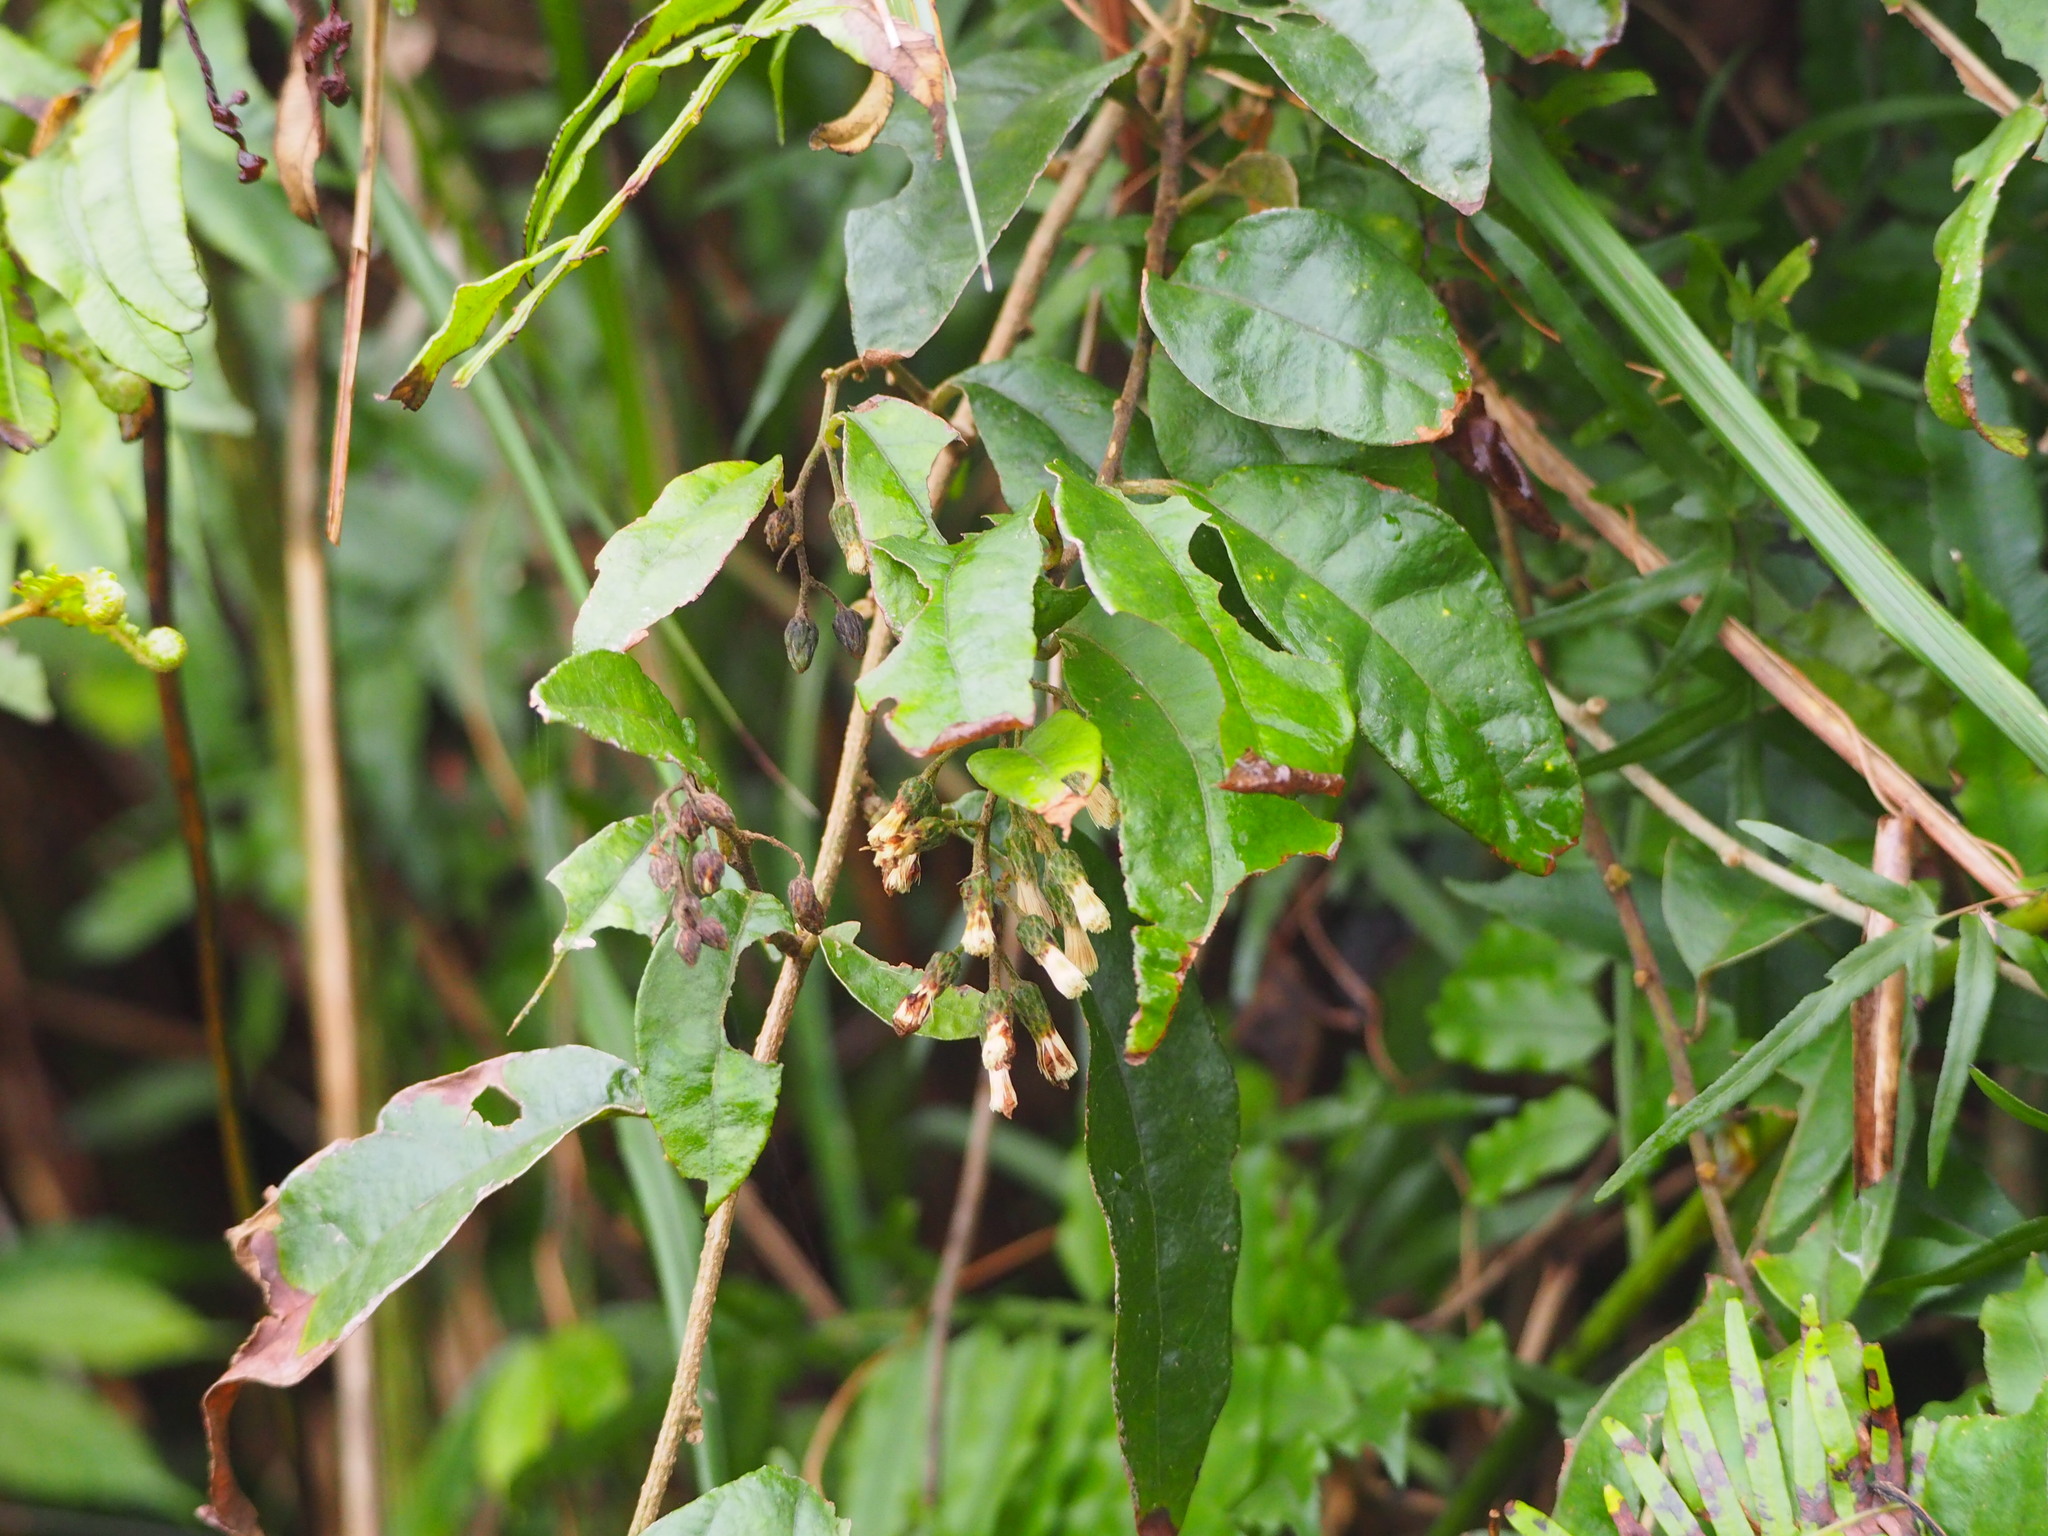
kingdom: Plantae
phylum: Tracheophyta
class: Magnoliopsida
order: Asterales
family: Asteraceae
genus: Decaneuropsis
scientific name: Decaneuropsis gratiosa
